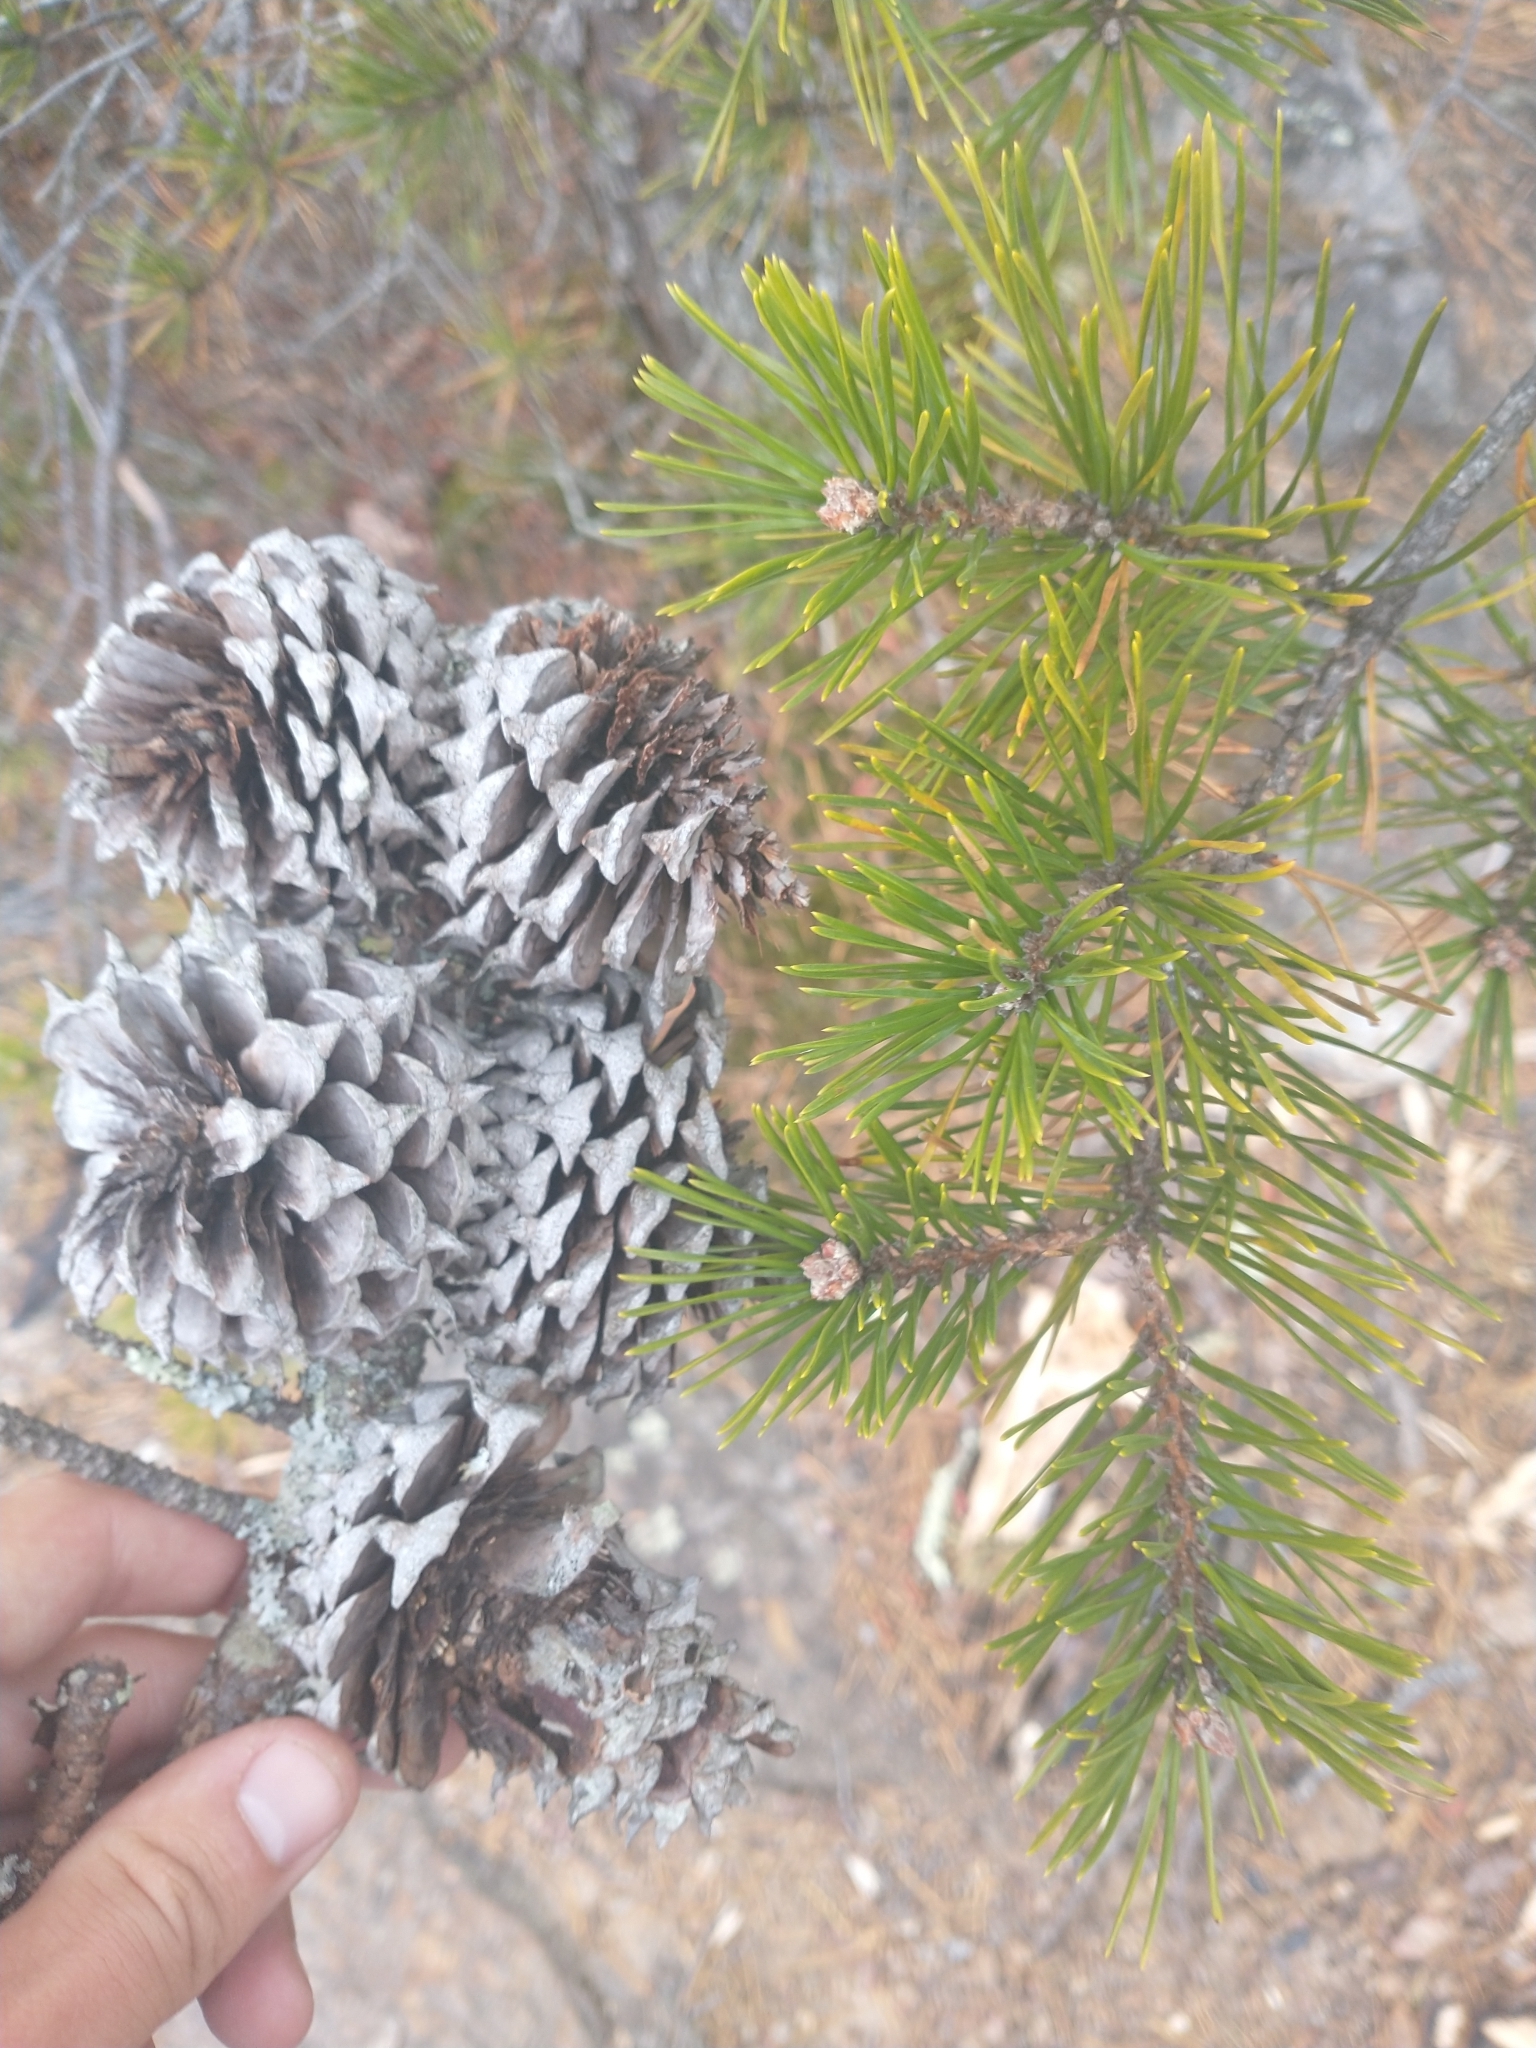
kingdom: Plantae
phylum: Tracheophyta
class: Pinopsida
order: Pinales
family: Pinaceae
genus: Pinus
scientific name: Pinus pungens
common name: Hickory pine
